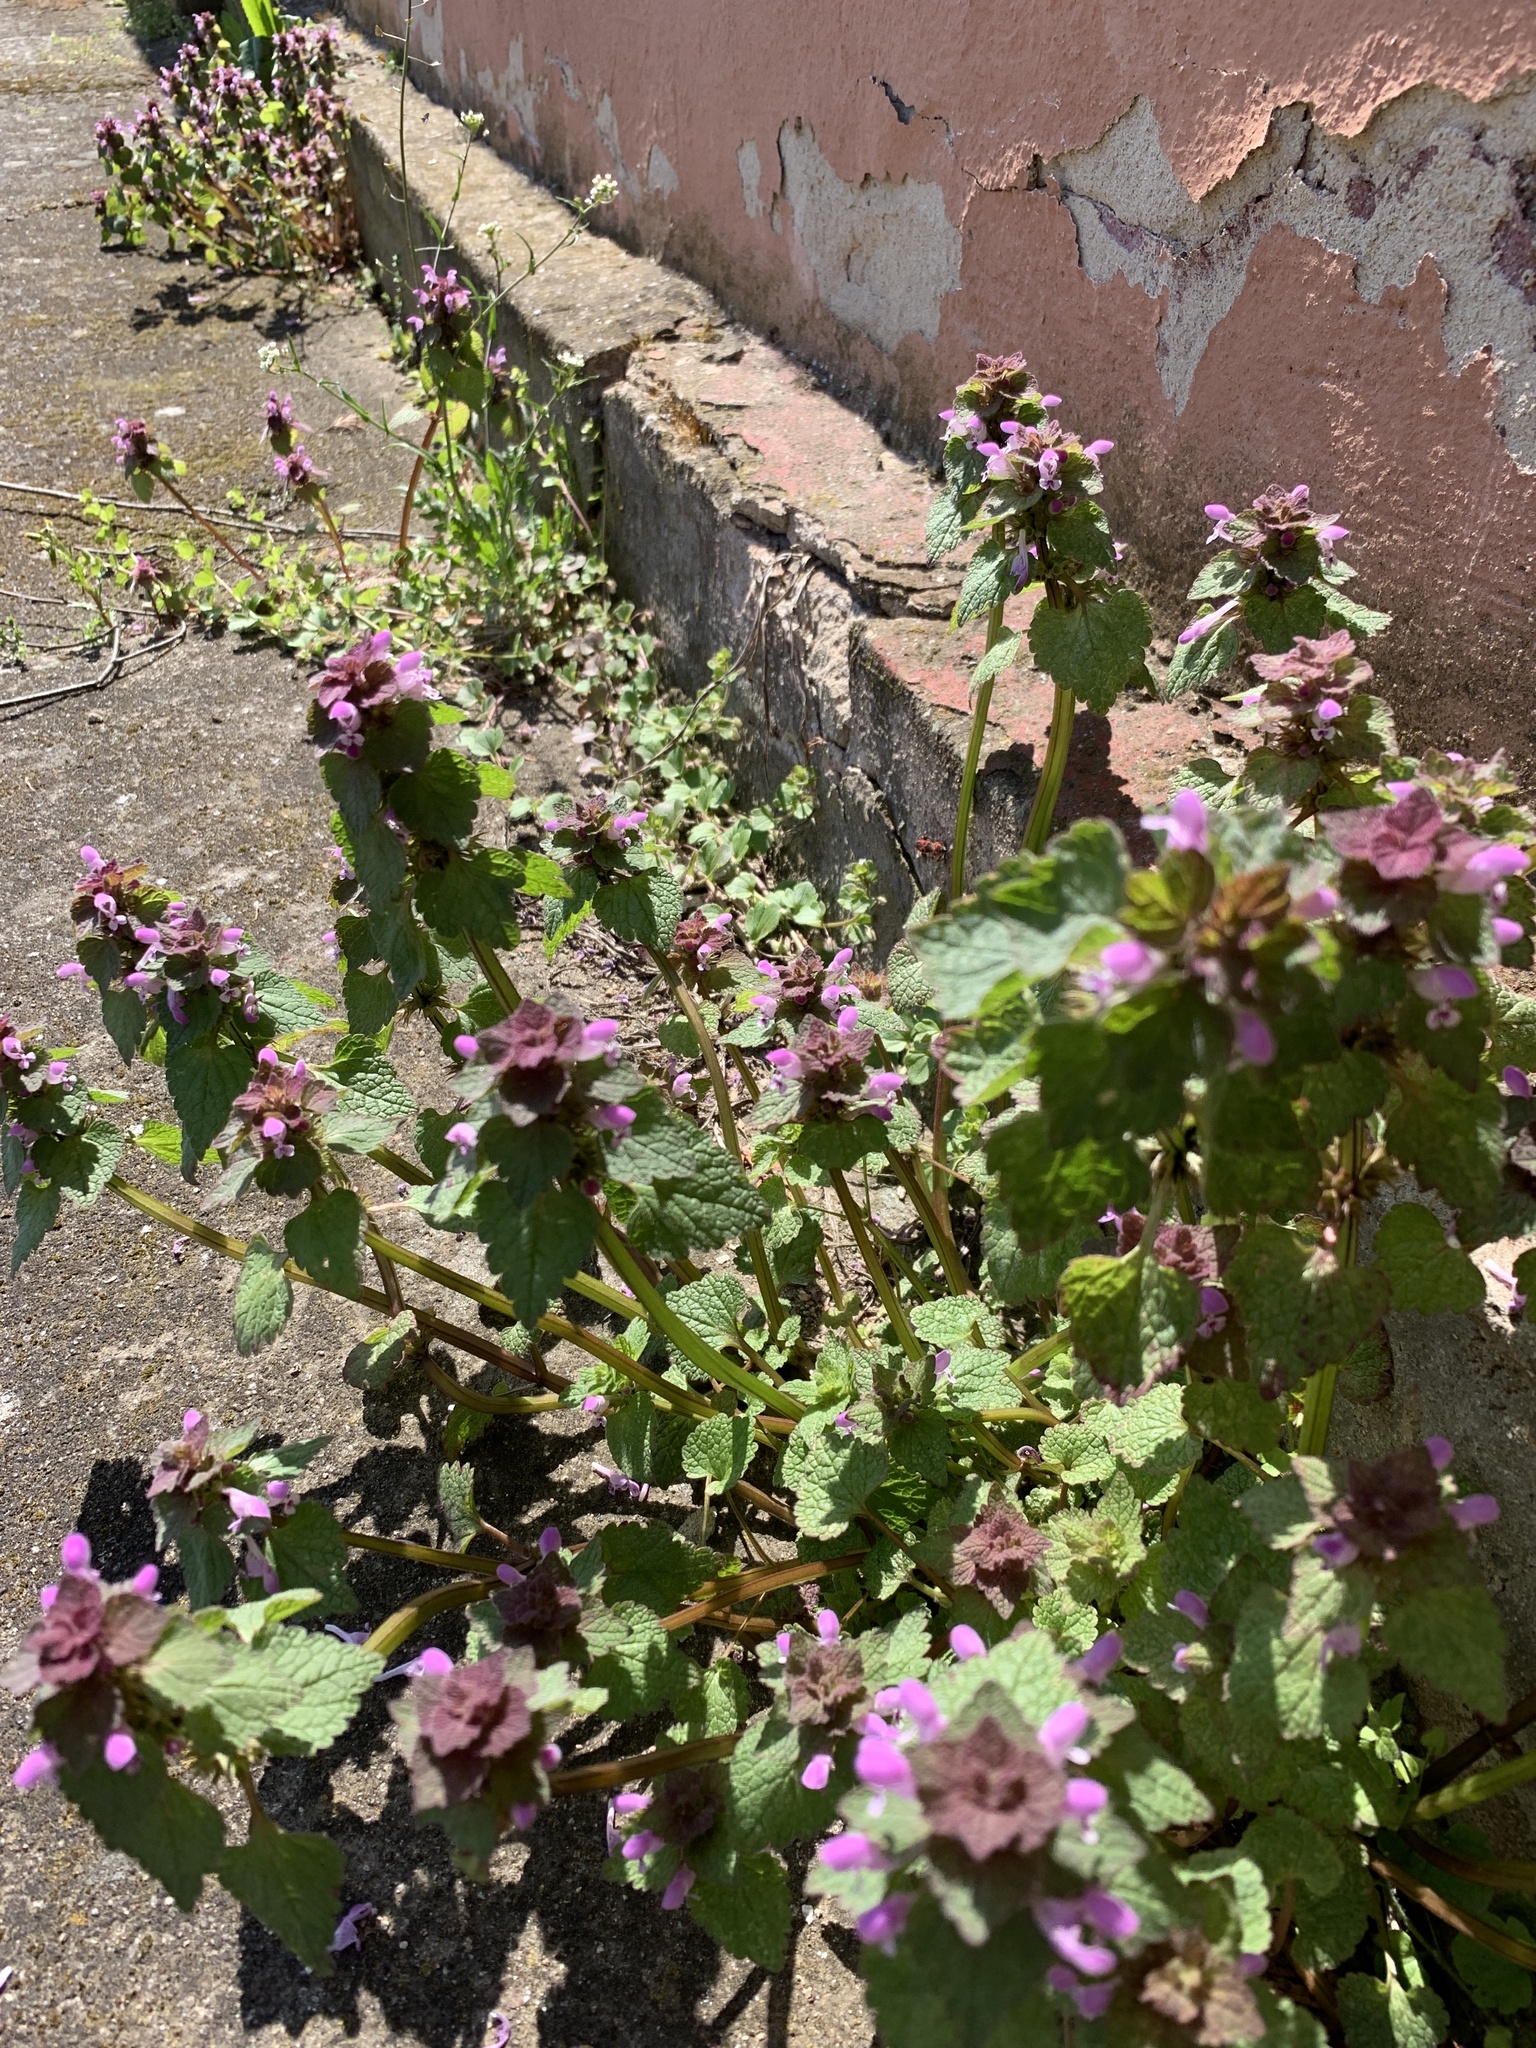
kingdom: Plantae
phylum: Tracheophyta
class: Magnoliopsida
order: Lamiales
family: Lamiaceae
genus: Lamium
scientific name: Lamium purpureum
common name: Red dead-nettle
